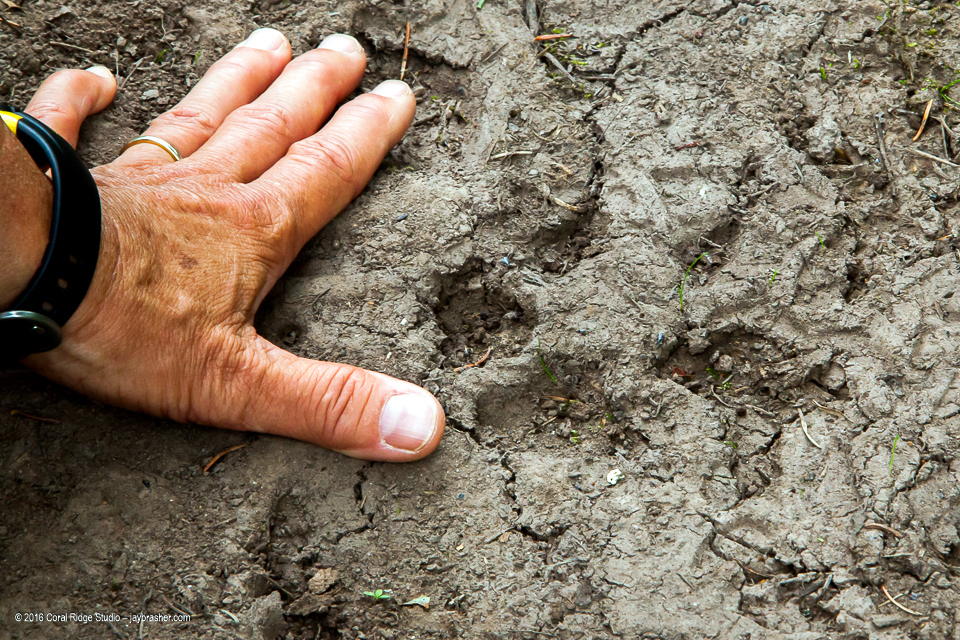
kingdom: Animalia
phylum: Chordata
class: Mammalia
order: Carnivora
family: Canidae
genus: Canis
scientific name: Canis lupus
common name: Gray wolf
